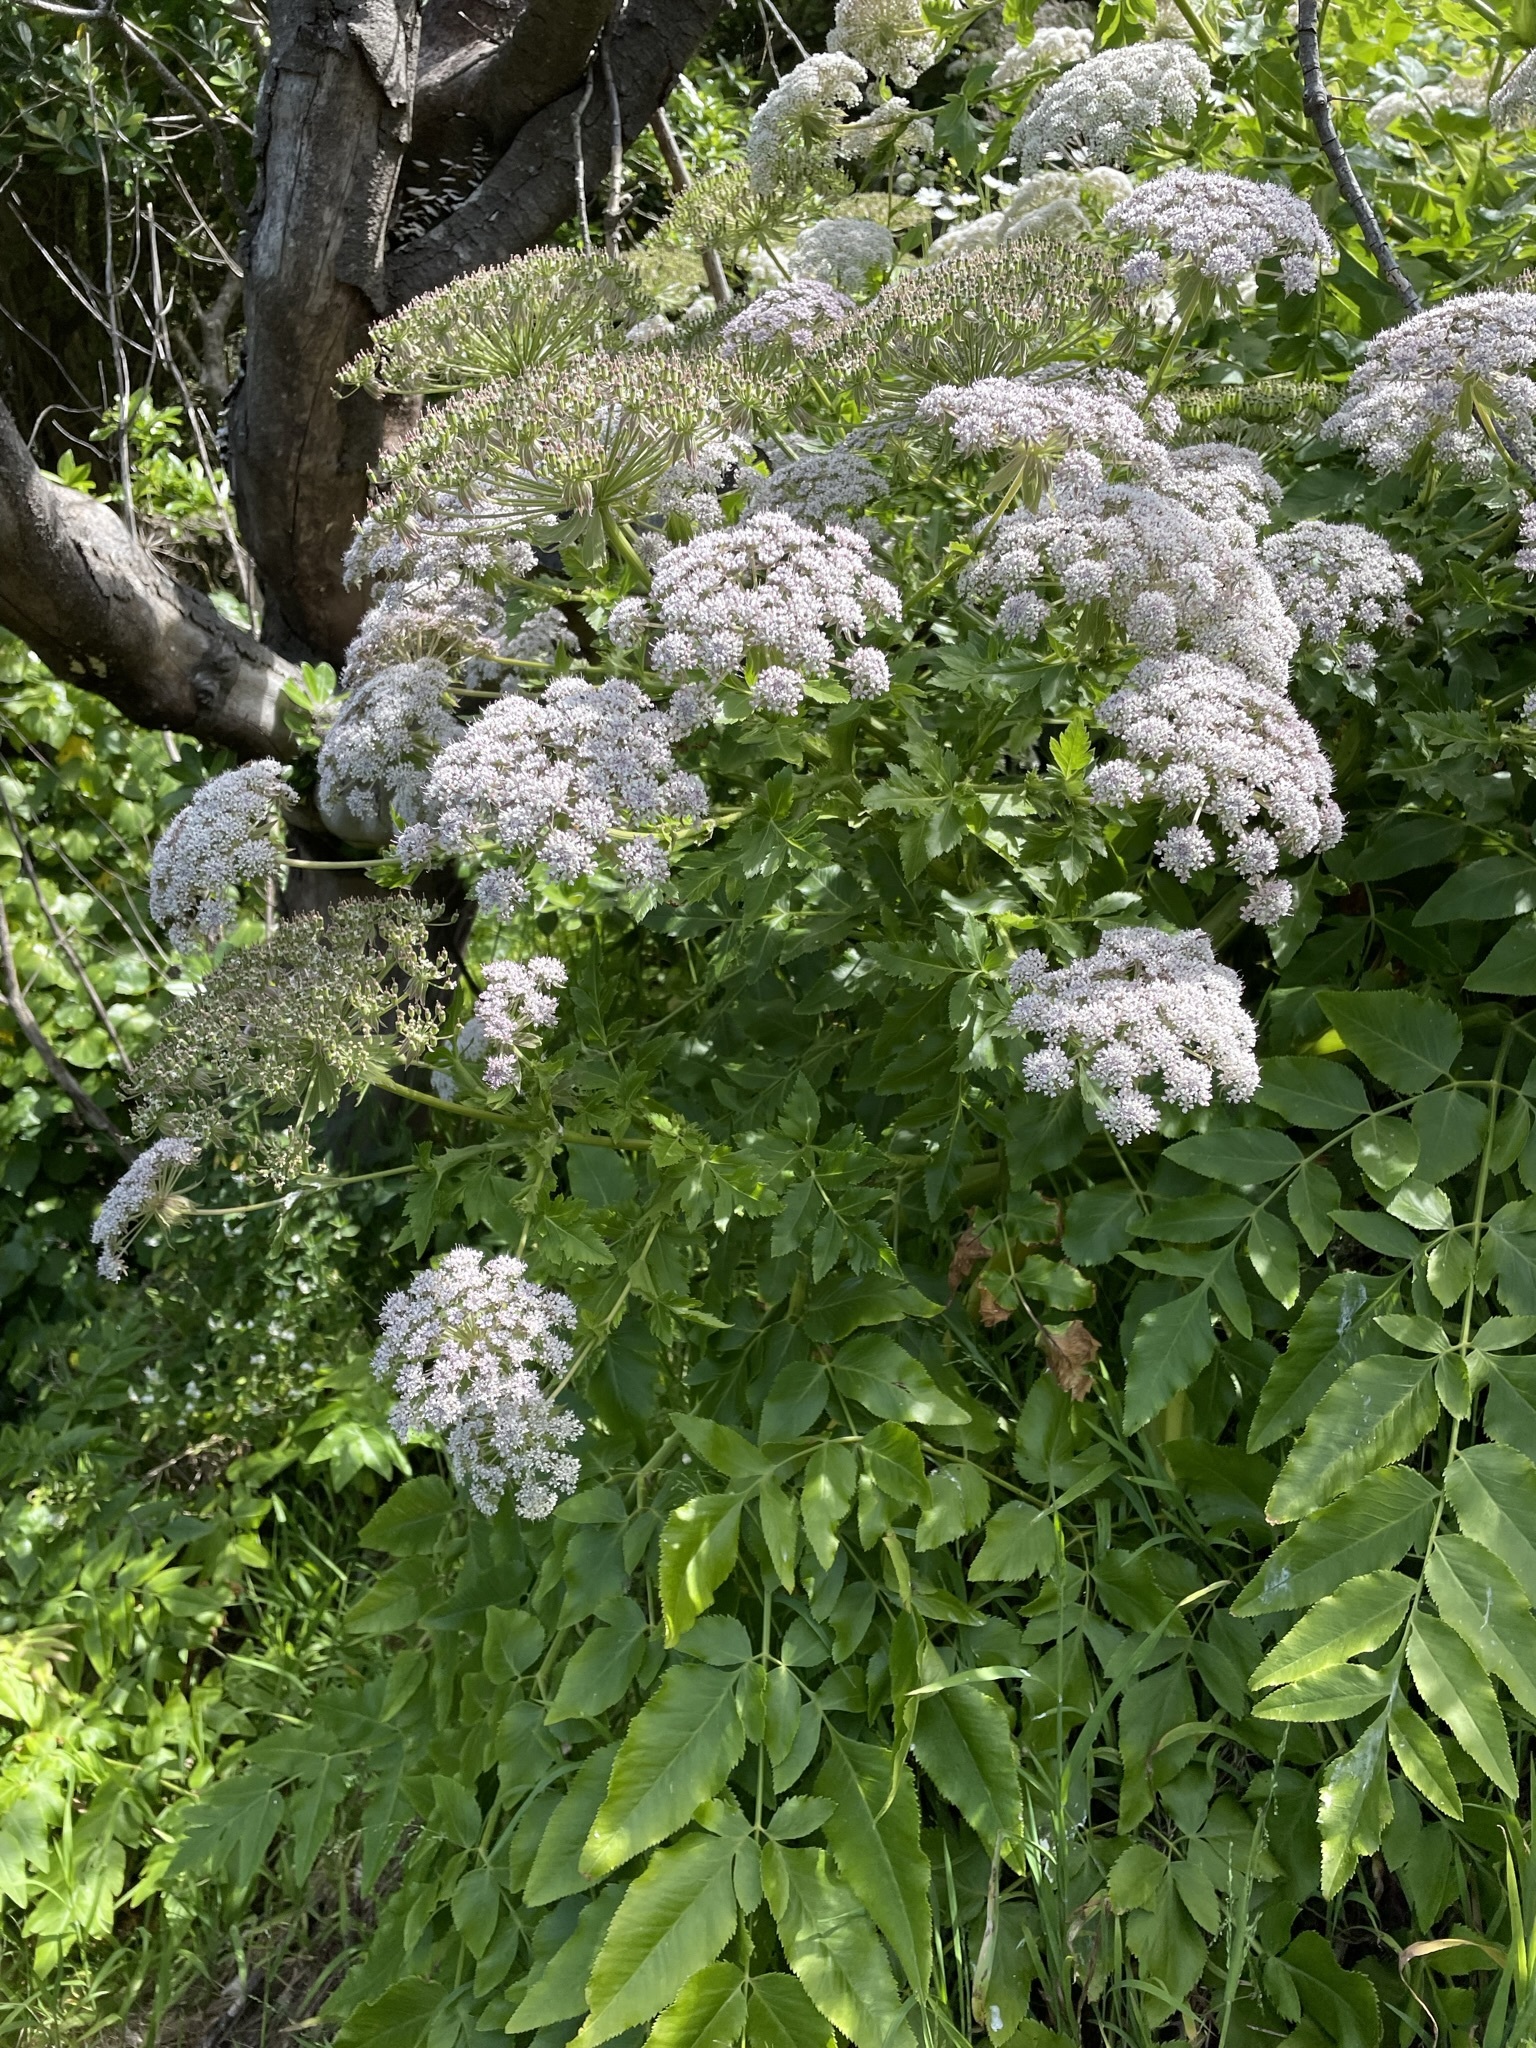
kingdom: Plantae
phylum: Tracheophyta
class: Magnoliopsida
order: Apiales
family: Apiaceae
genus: Daucus
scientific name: Daucus decipiens
